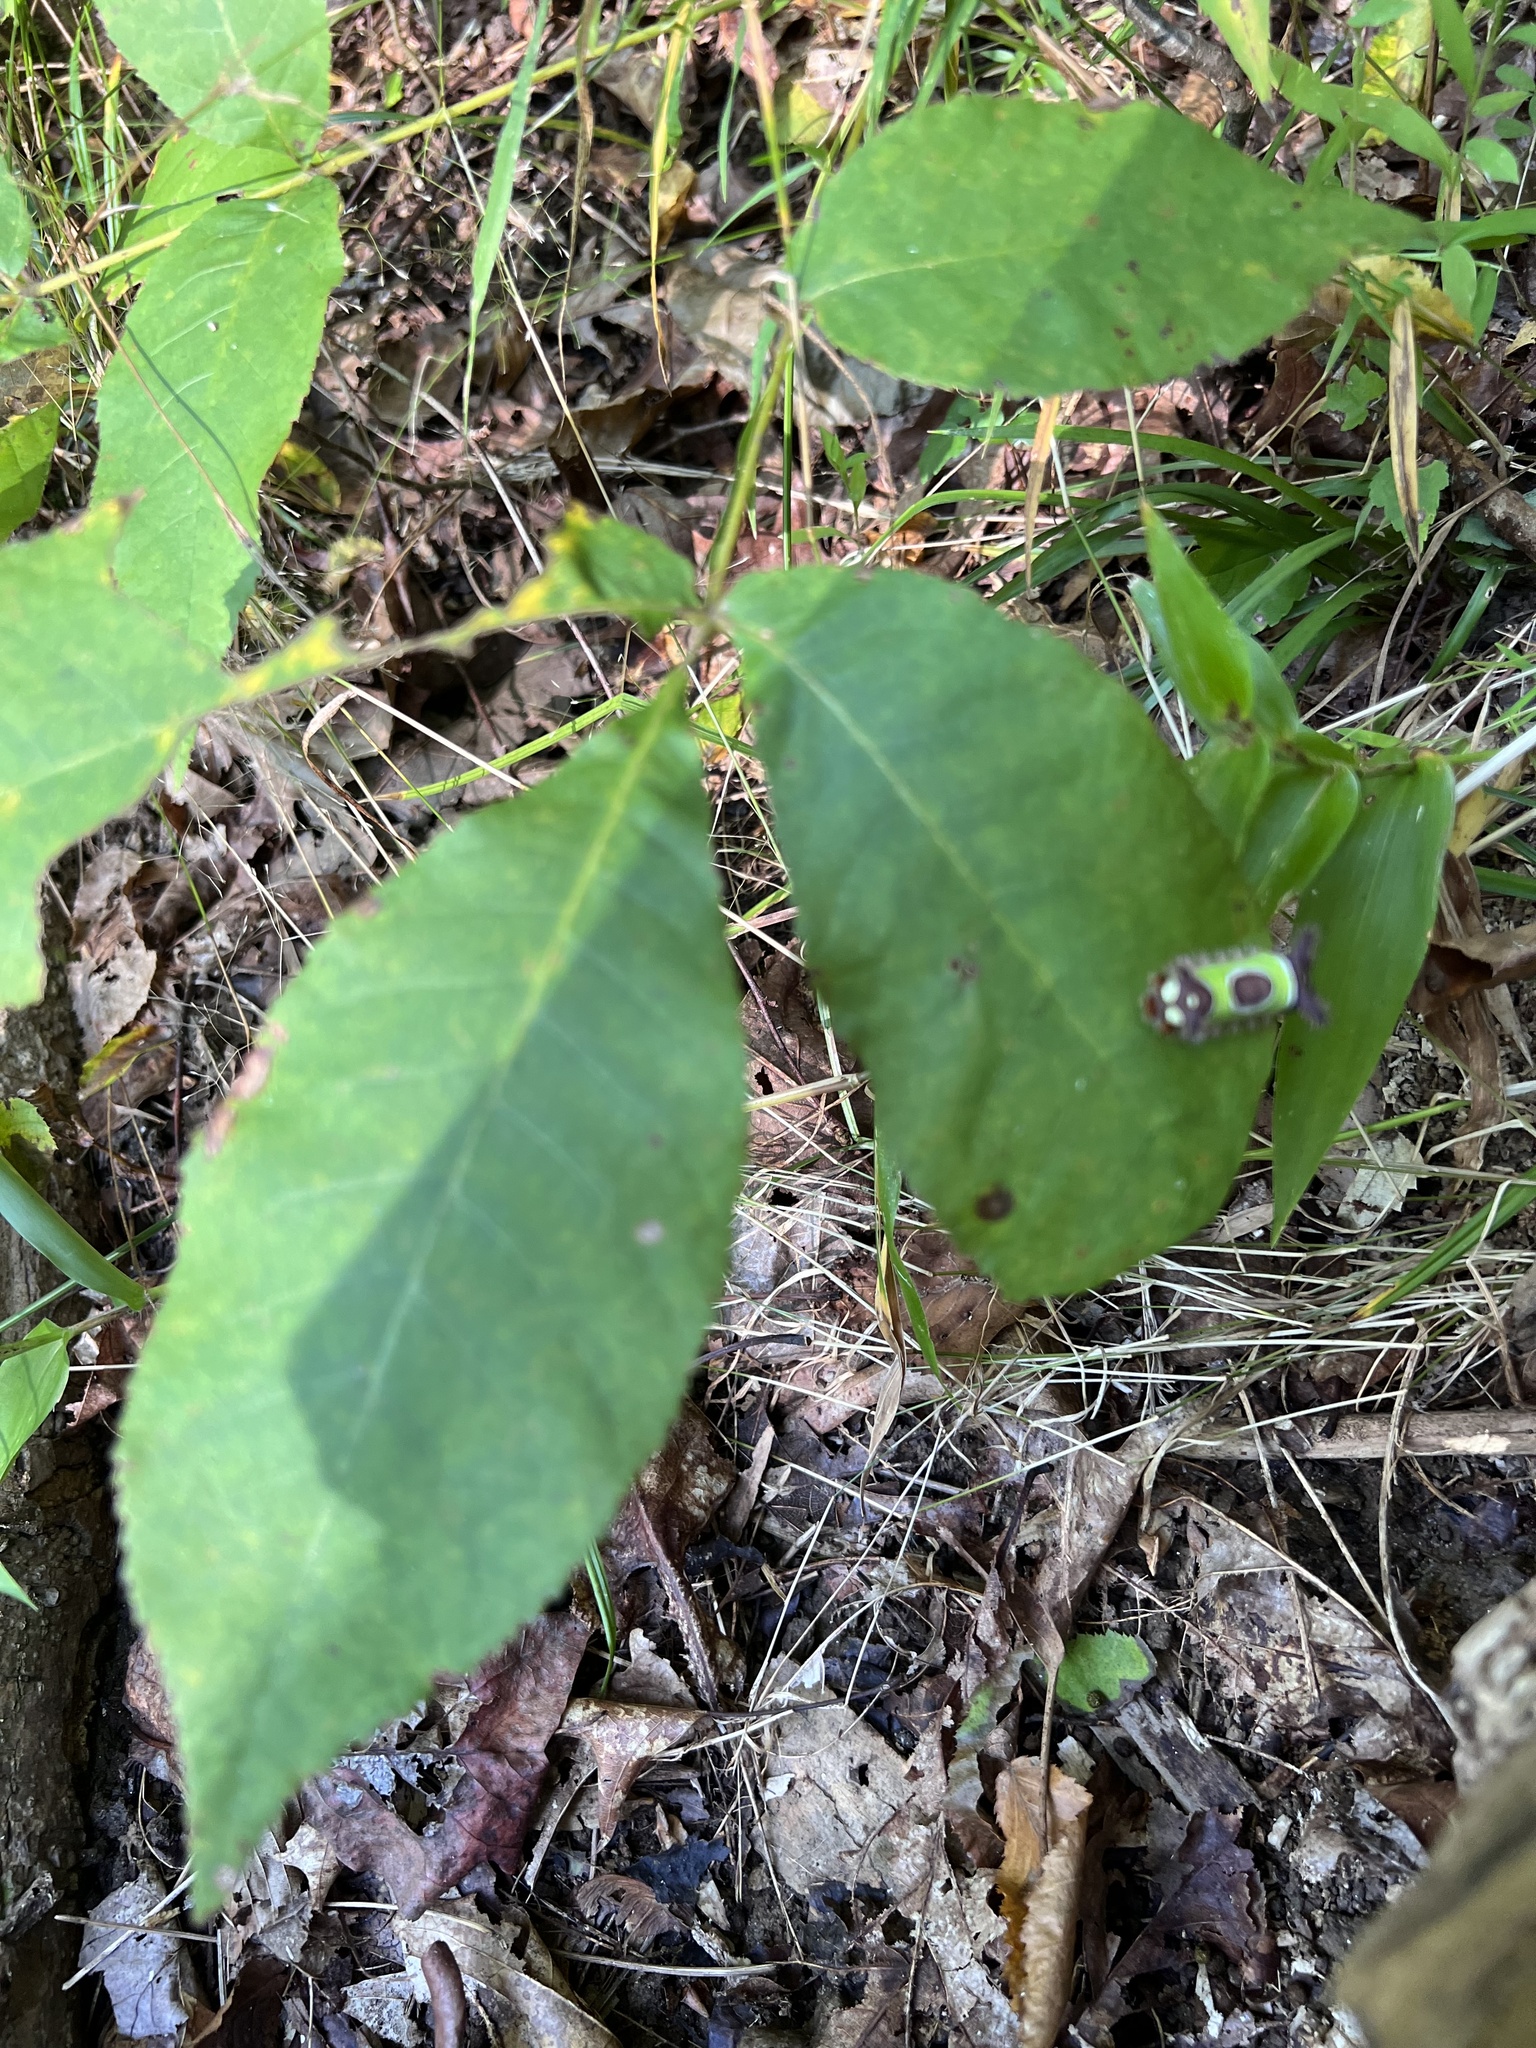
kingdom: Animalia
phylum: Arthropoda
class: Insecta
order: Lepidoptera
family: Limacodidae
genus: Acharia
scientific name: Acharia stimulea
